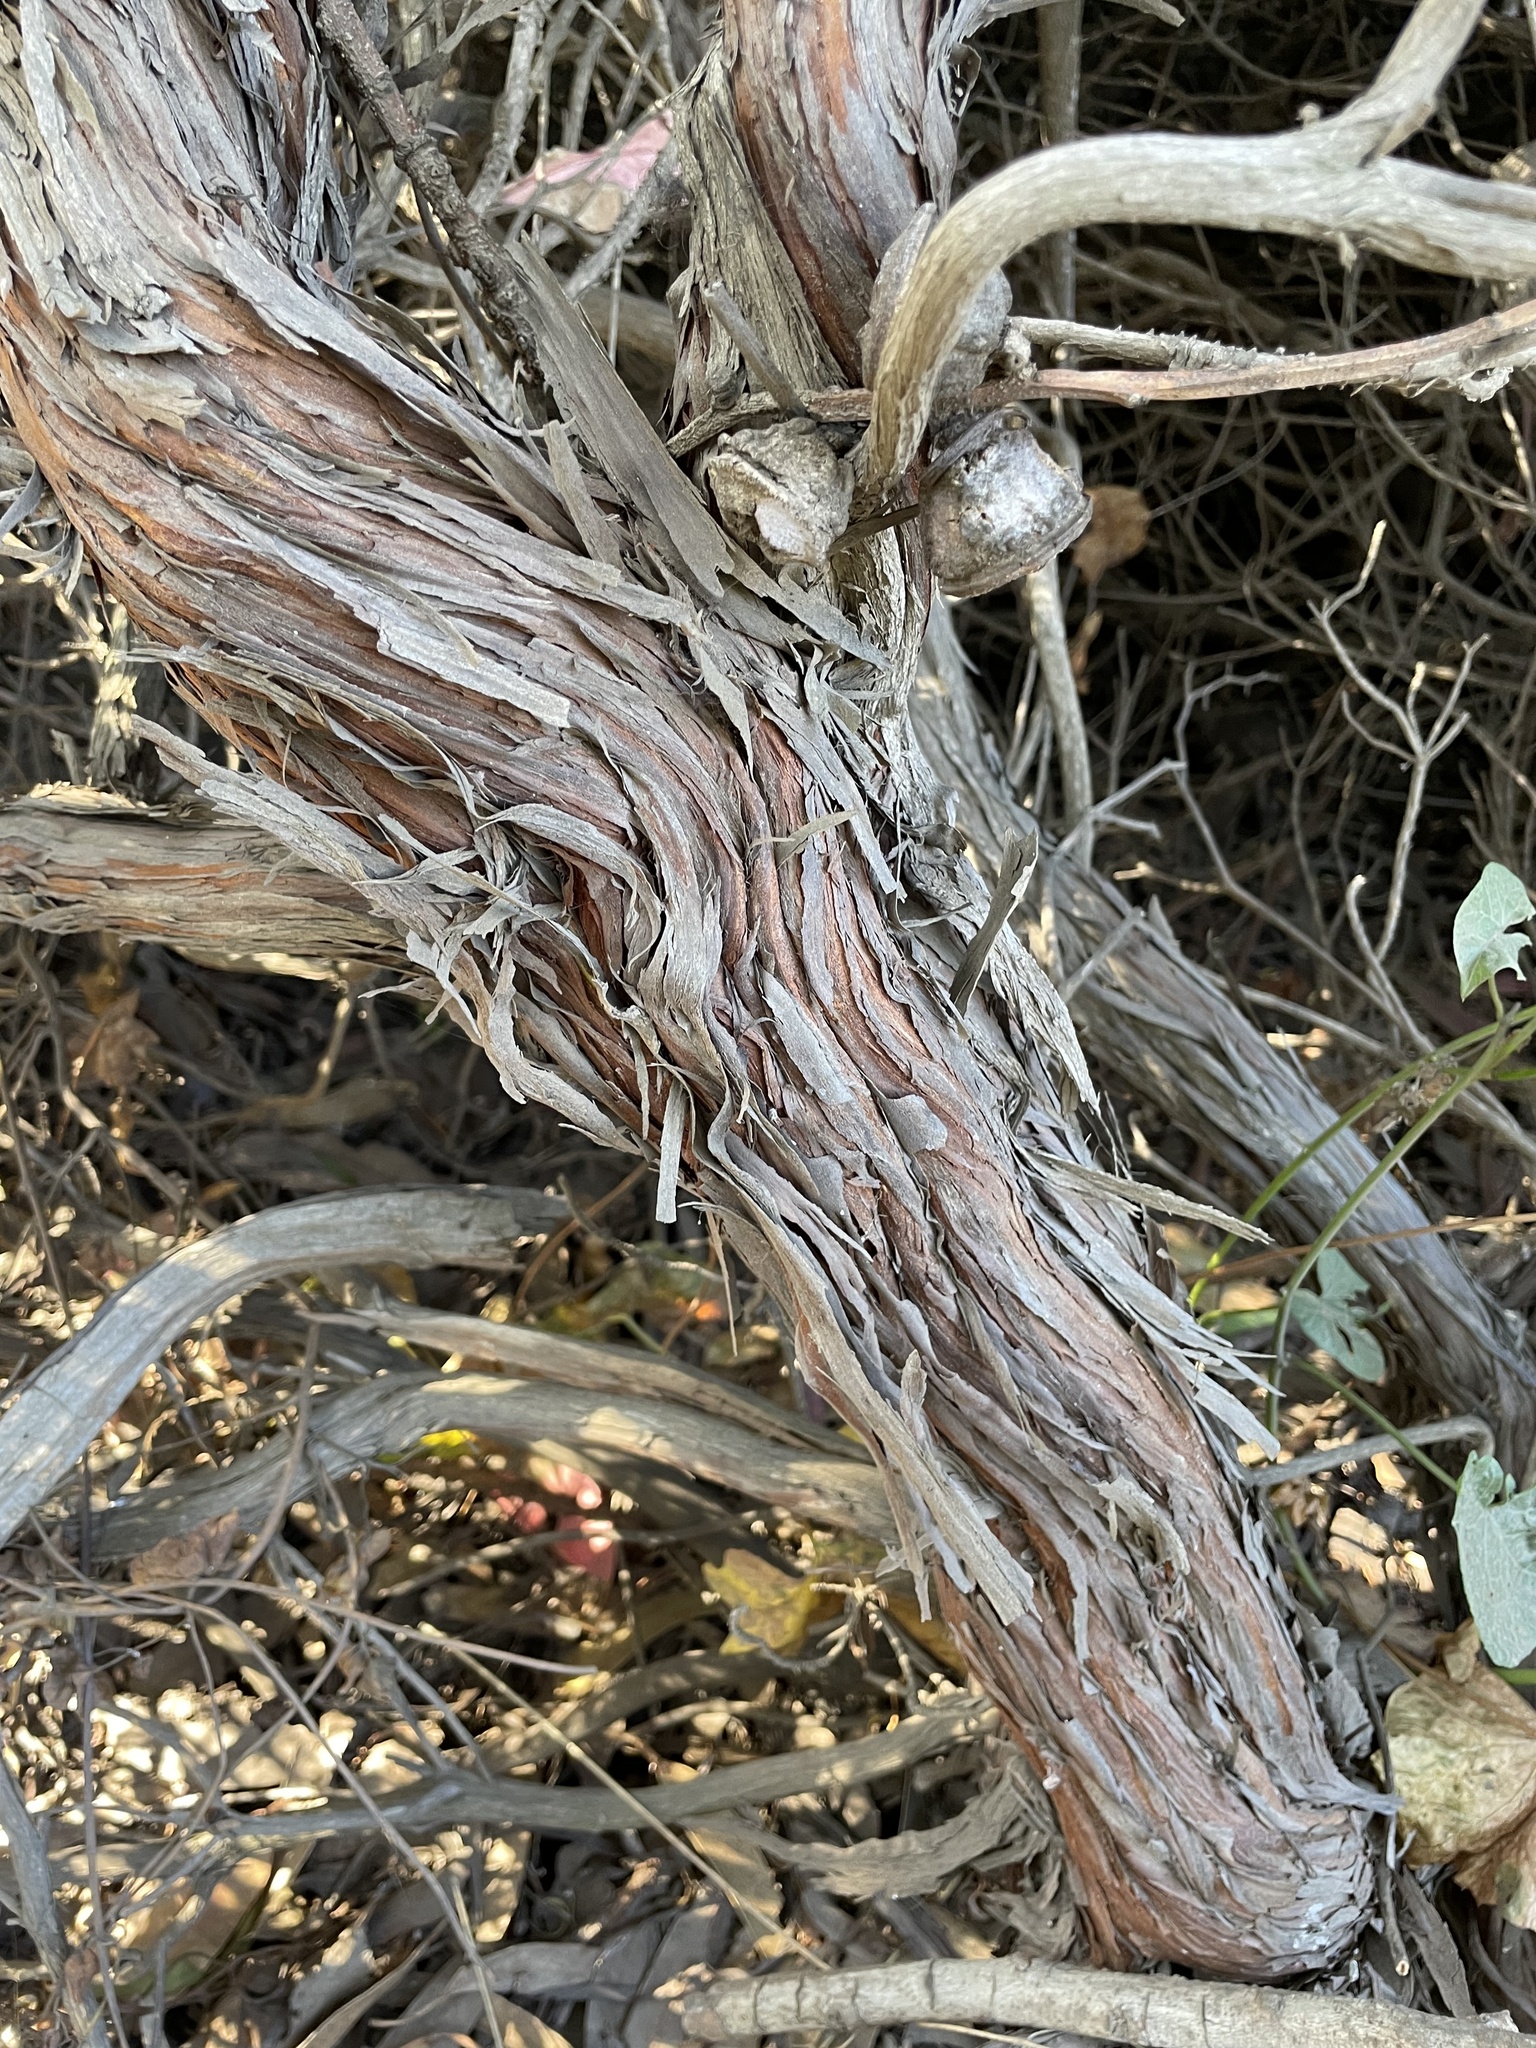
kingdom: Plantae
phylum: Tracheophyta
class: Magnoliopsida
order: Caryophyllales
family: Polygonaceae
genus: Eriogonum
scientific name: Eriogonum arborescens
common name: Island buckwheat
